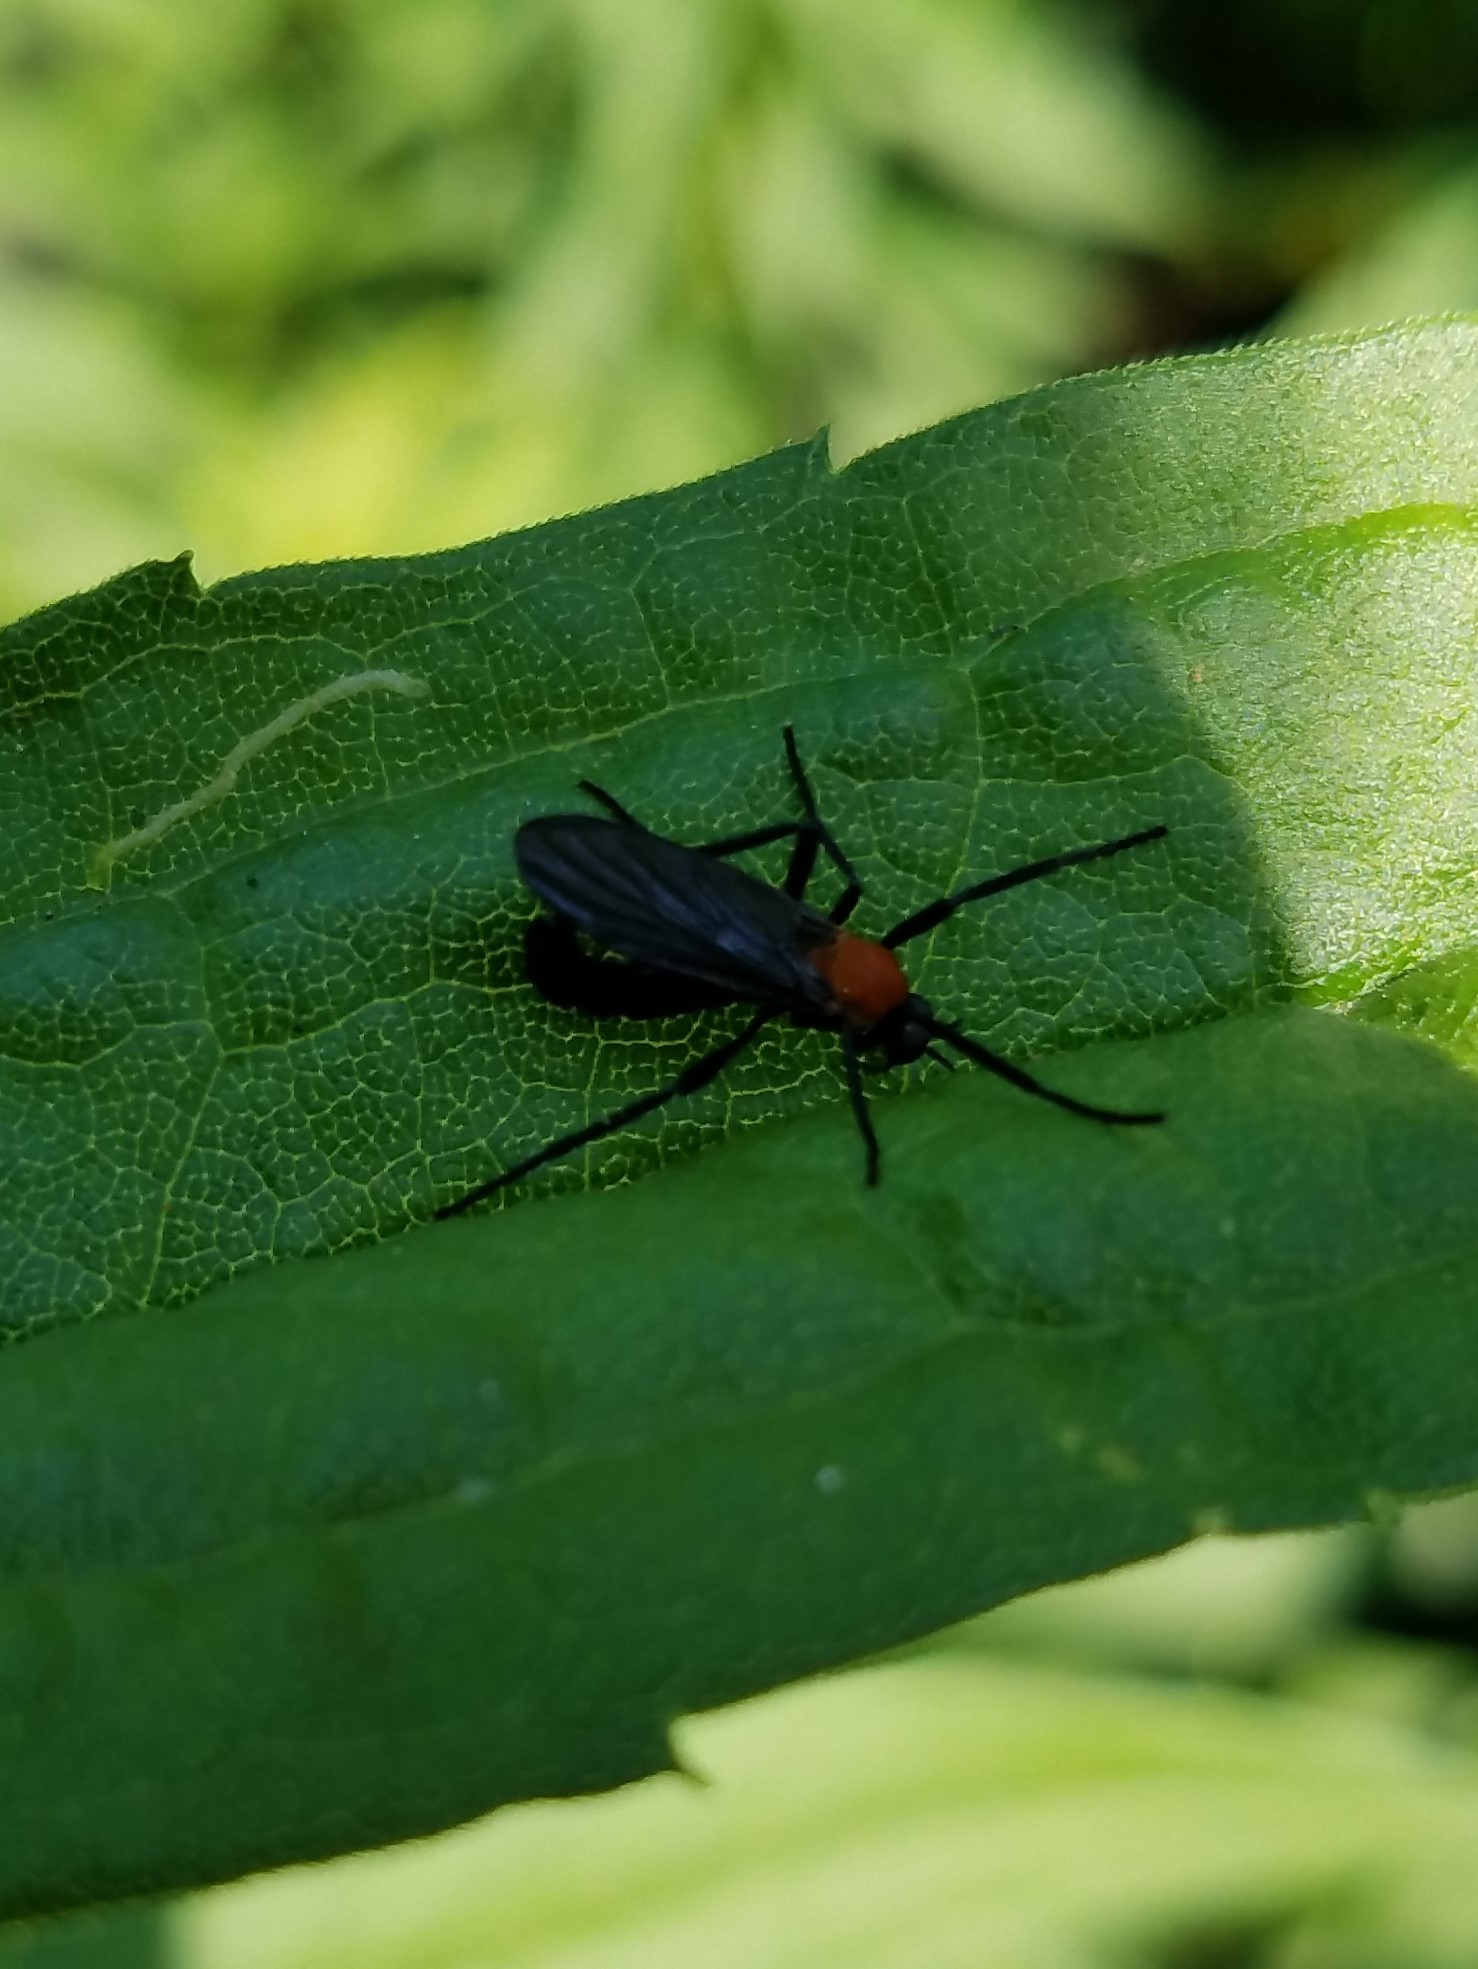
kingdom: Animalia
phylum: Arthropoda
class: Insecta
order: Diptera
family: Bibionidae
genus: Plecia
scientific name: Plecia americana
